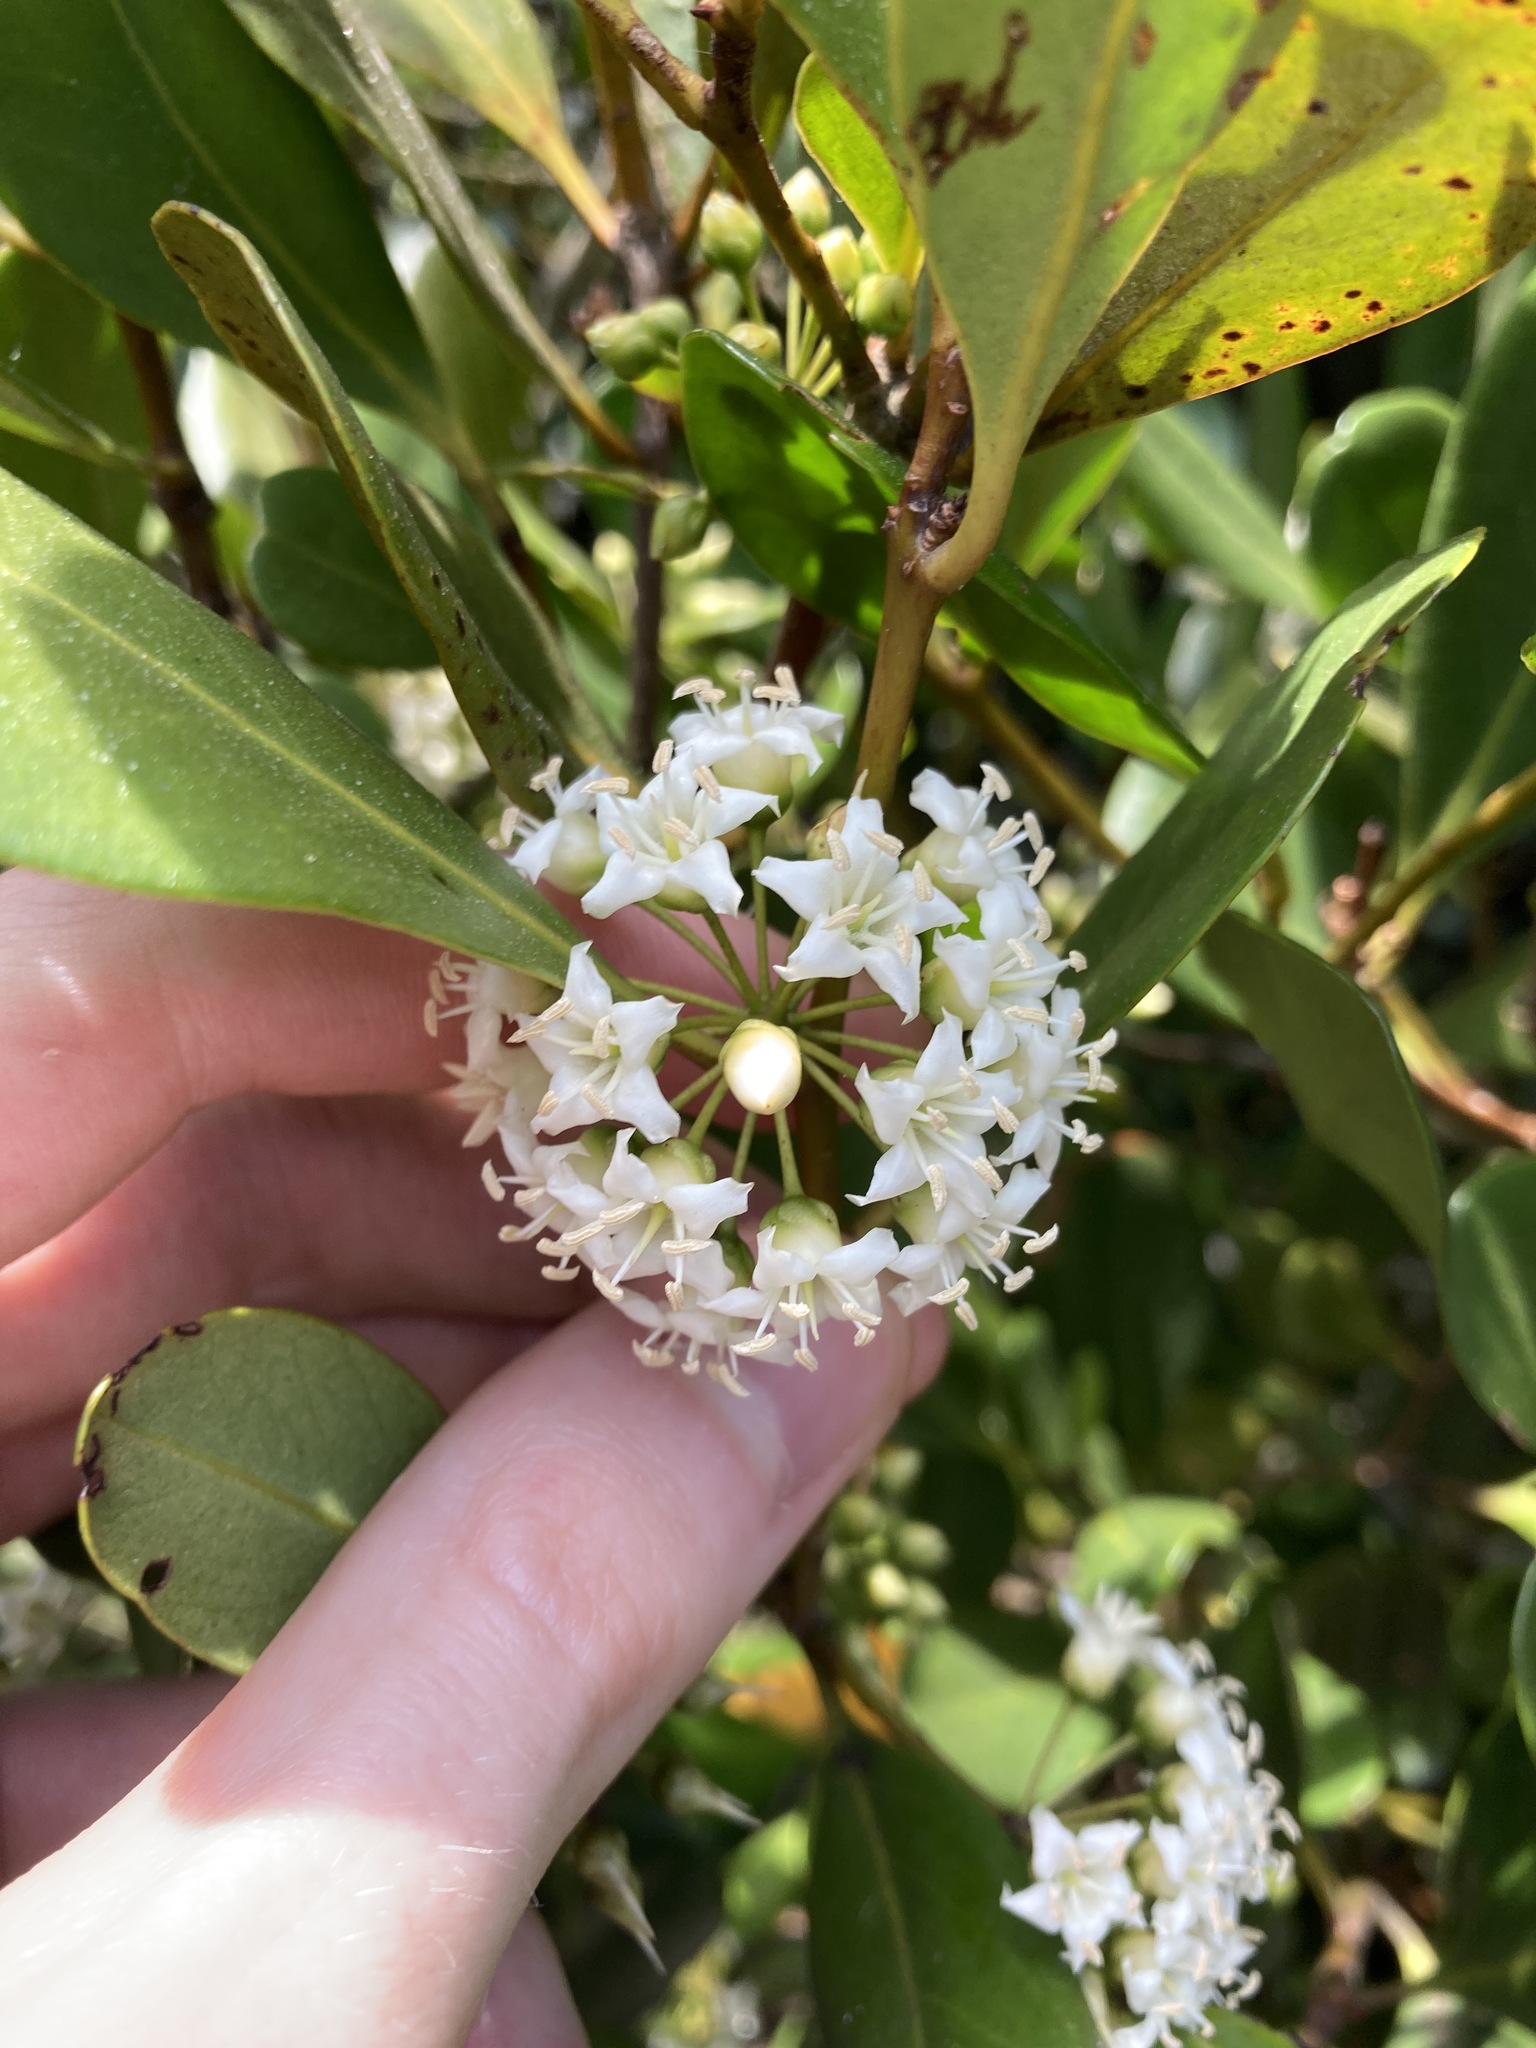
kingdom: Plantae
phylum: Tracheophyta
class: Magnoliopsida
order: Ericales
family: Primulaceae
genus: Aegiceras
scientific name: Aegiceras corniculatum
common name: River mangrove
